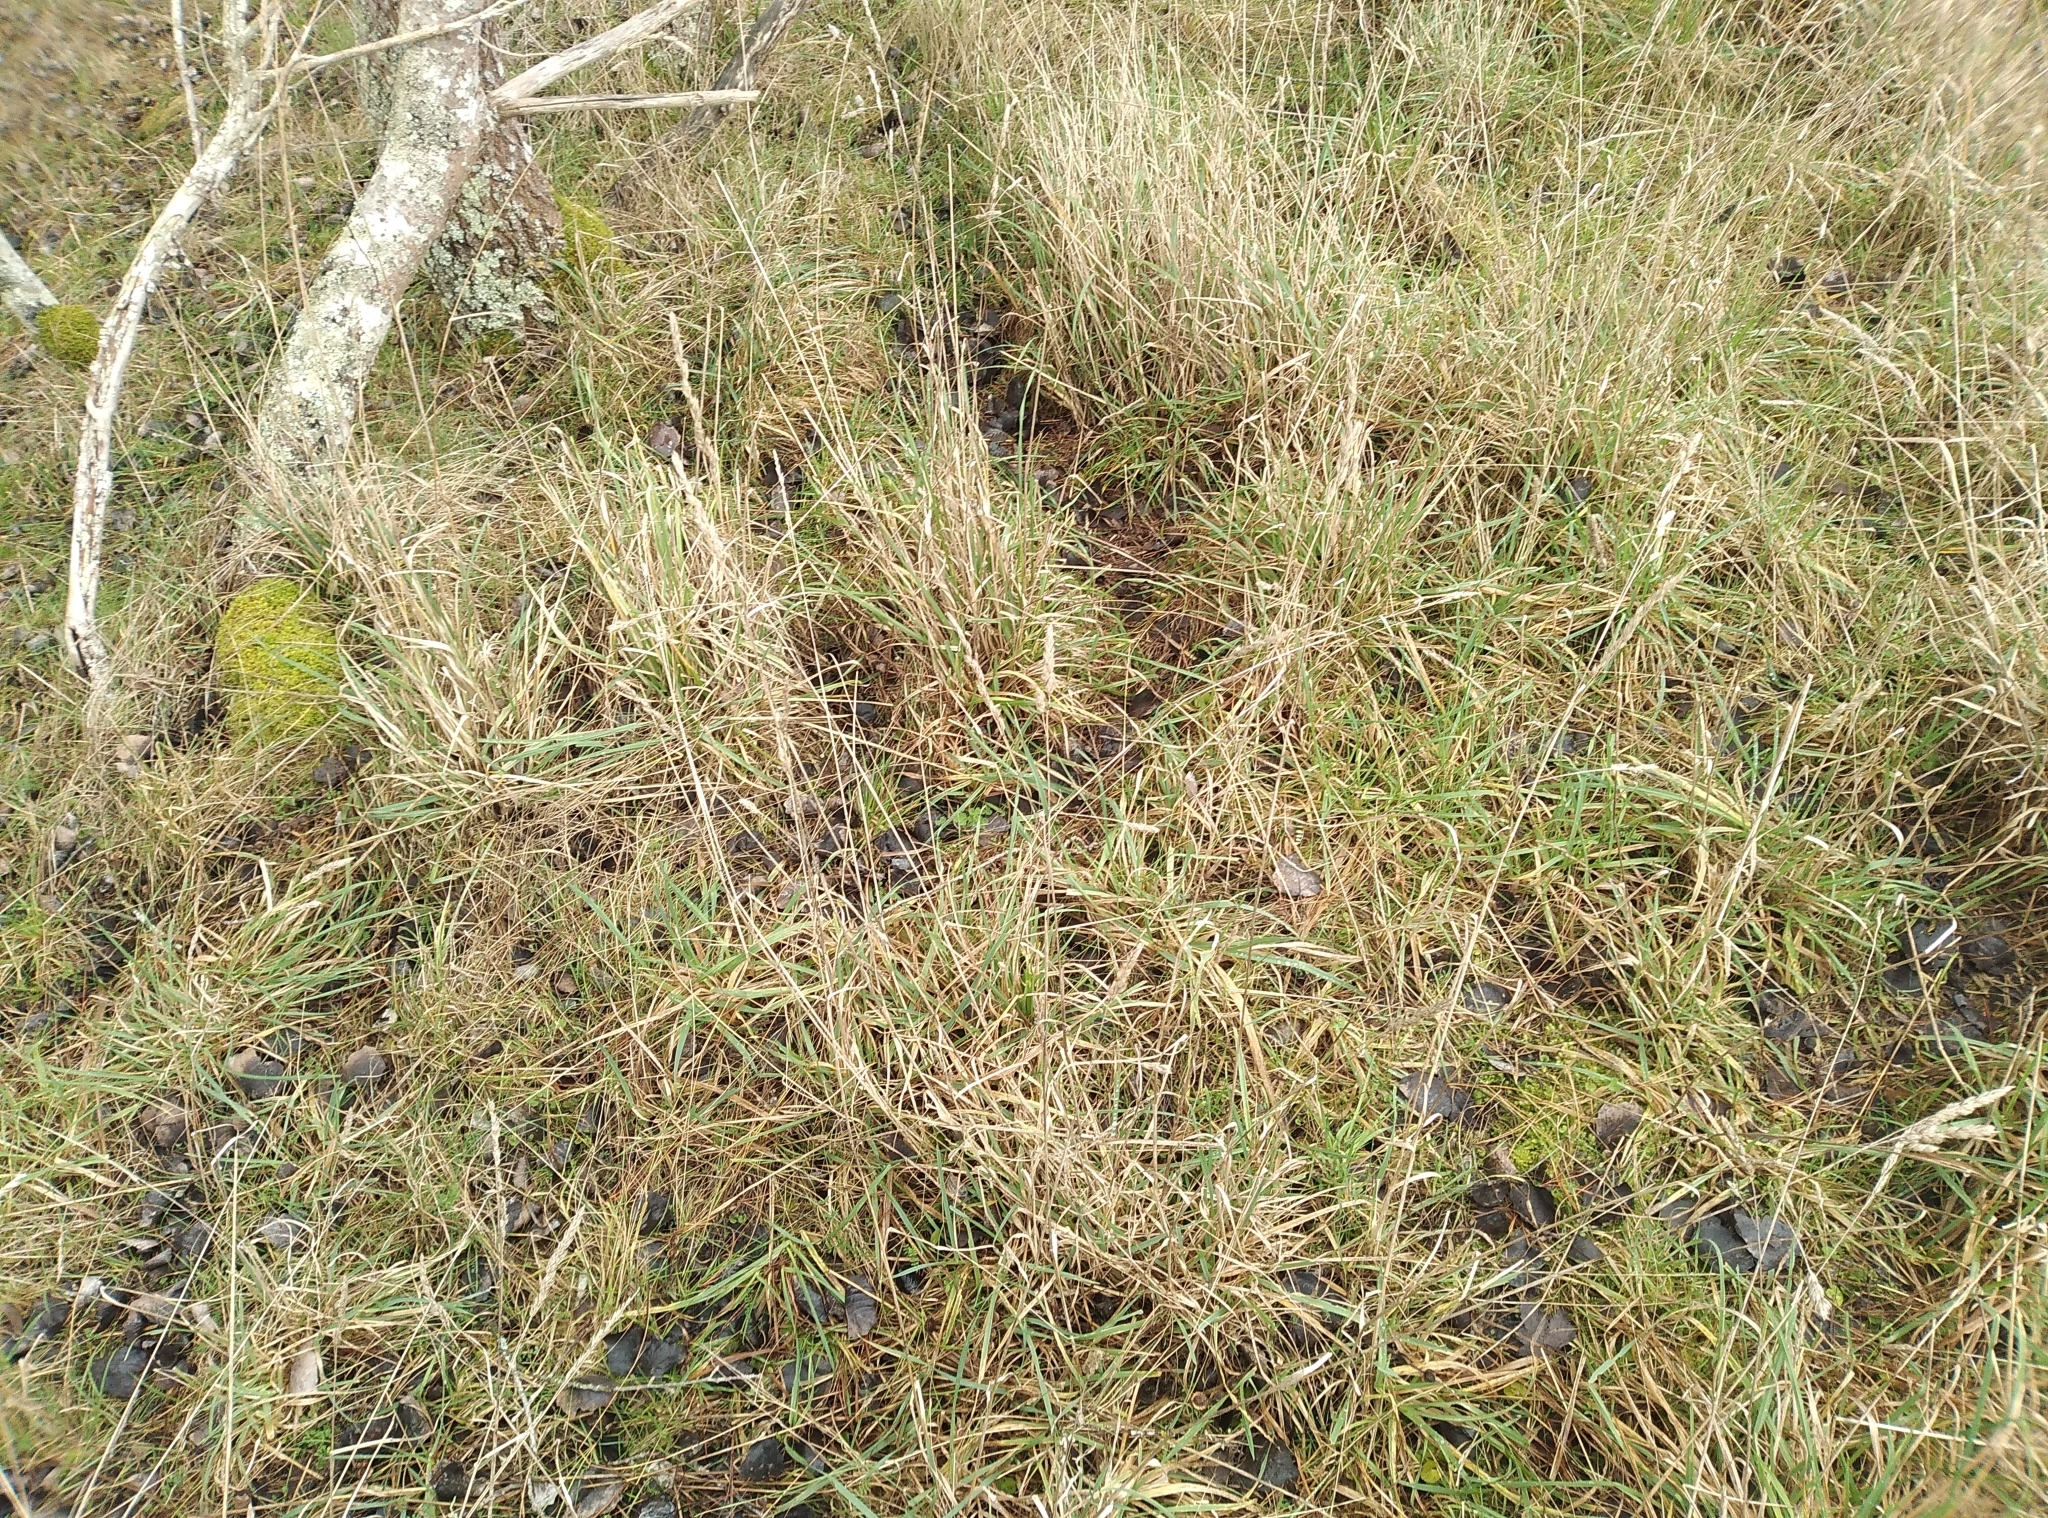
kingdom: Plantae
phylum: Tracheophyta
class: Liliopsida
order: Poales
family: Poaceae
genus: Dactylis
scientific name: Dactylis glomerata
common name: Orchardgrass
